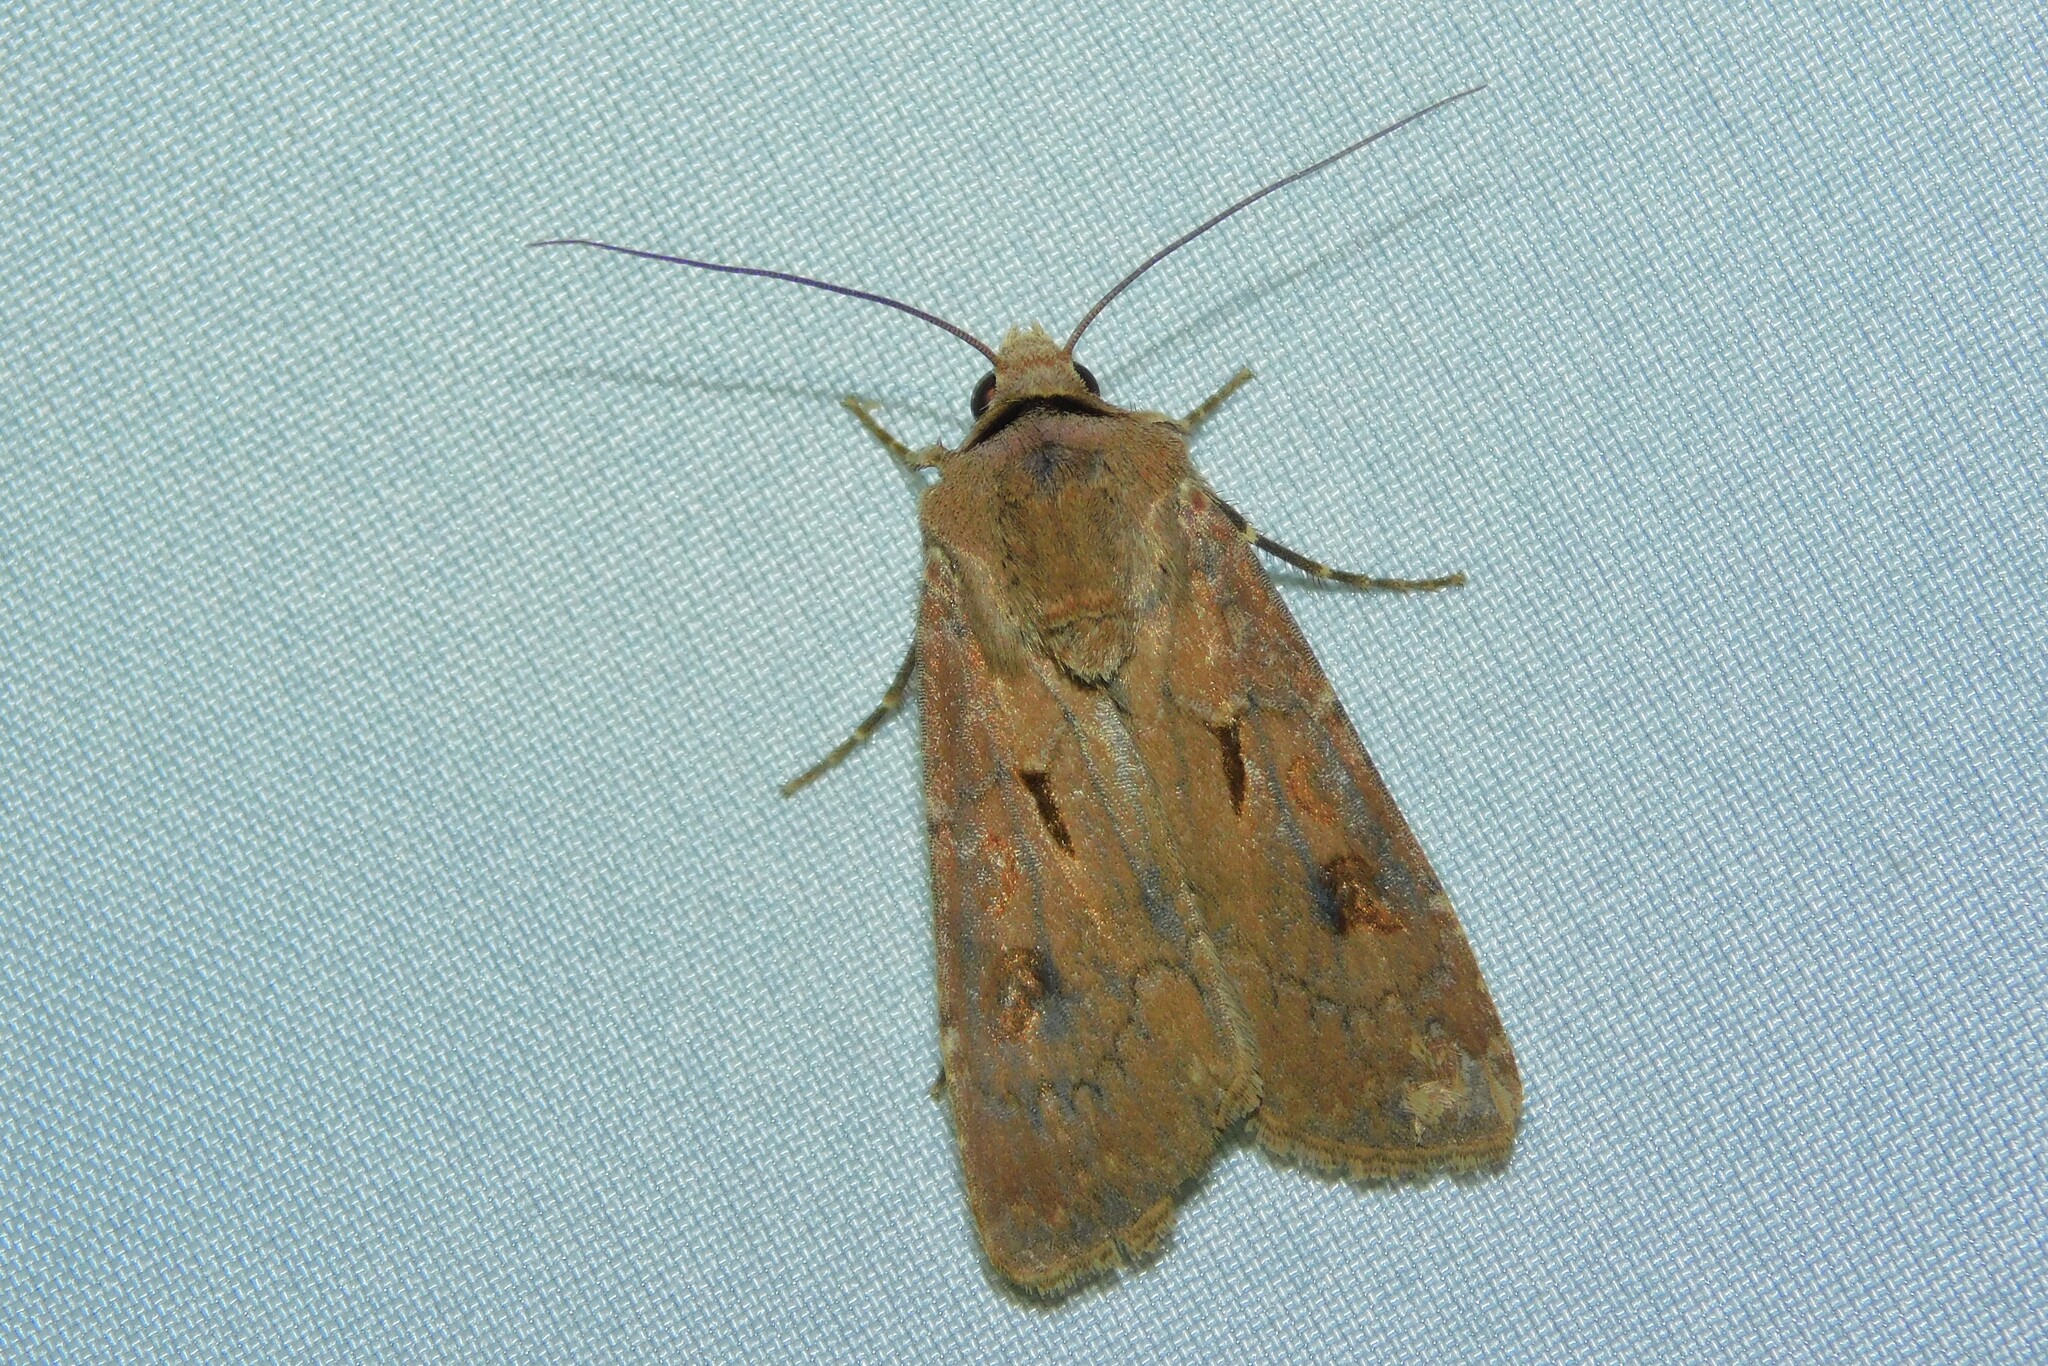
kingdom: Animalia
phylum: Arthropoda
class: Insecta
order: Lepidoptera
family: Noctuidae
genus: Agrotis
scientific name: Agrotis exclamationis
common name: Heart and dart
